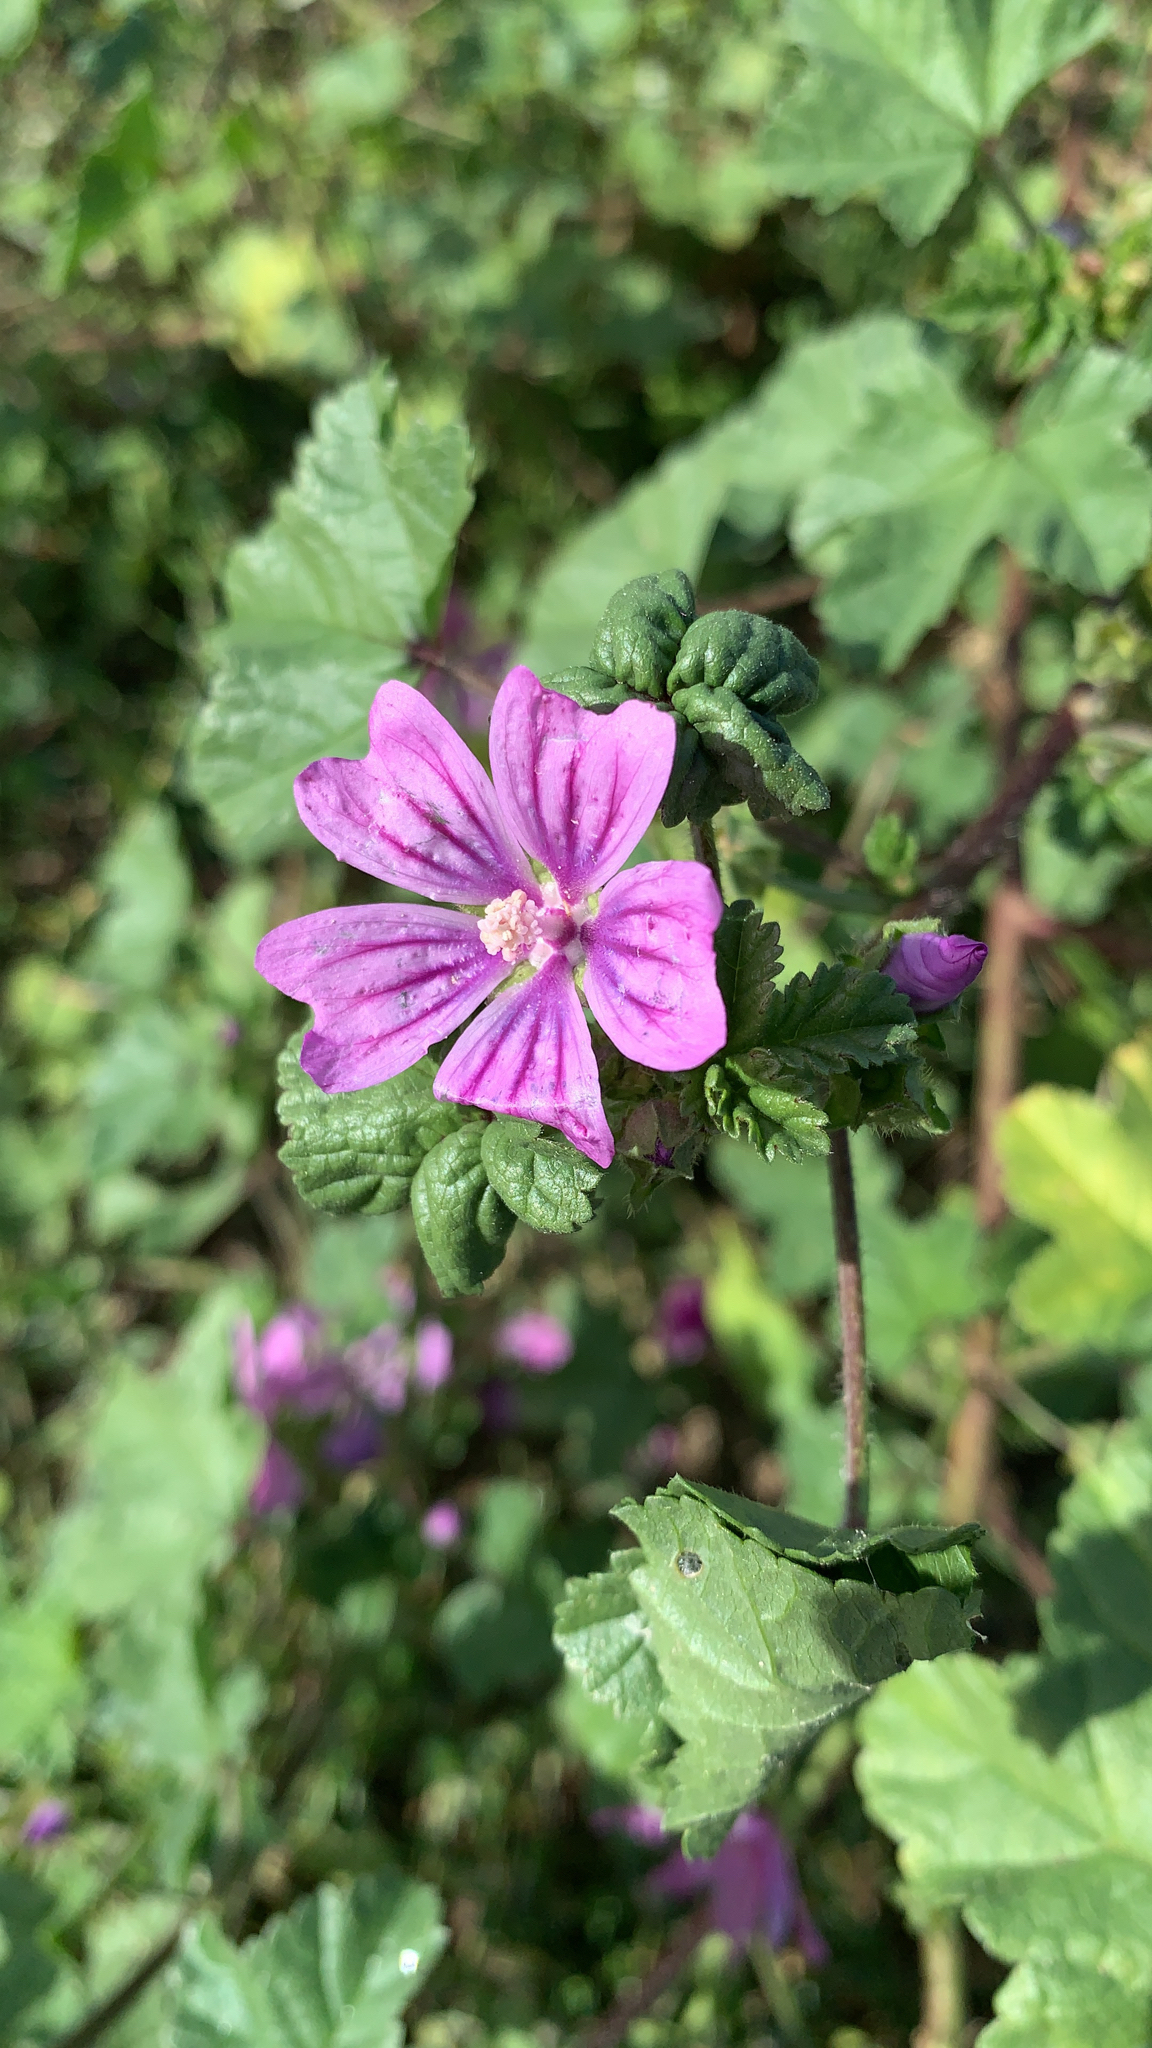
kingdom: Plantae
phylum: Tracheophyta
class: Magnoliopsida
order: Malvales
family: Malvaceae
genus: Malva
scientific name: Malva sylvestris
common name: Common mallow
